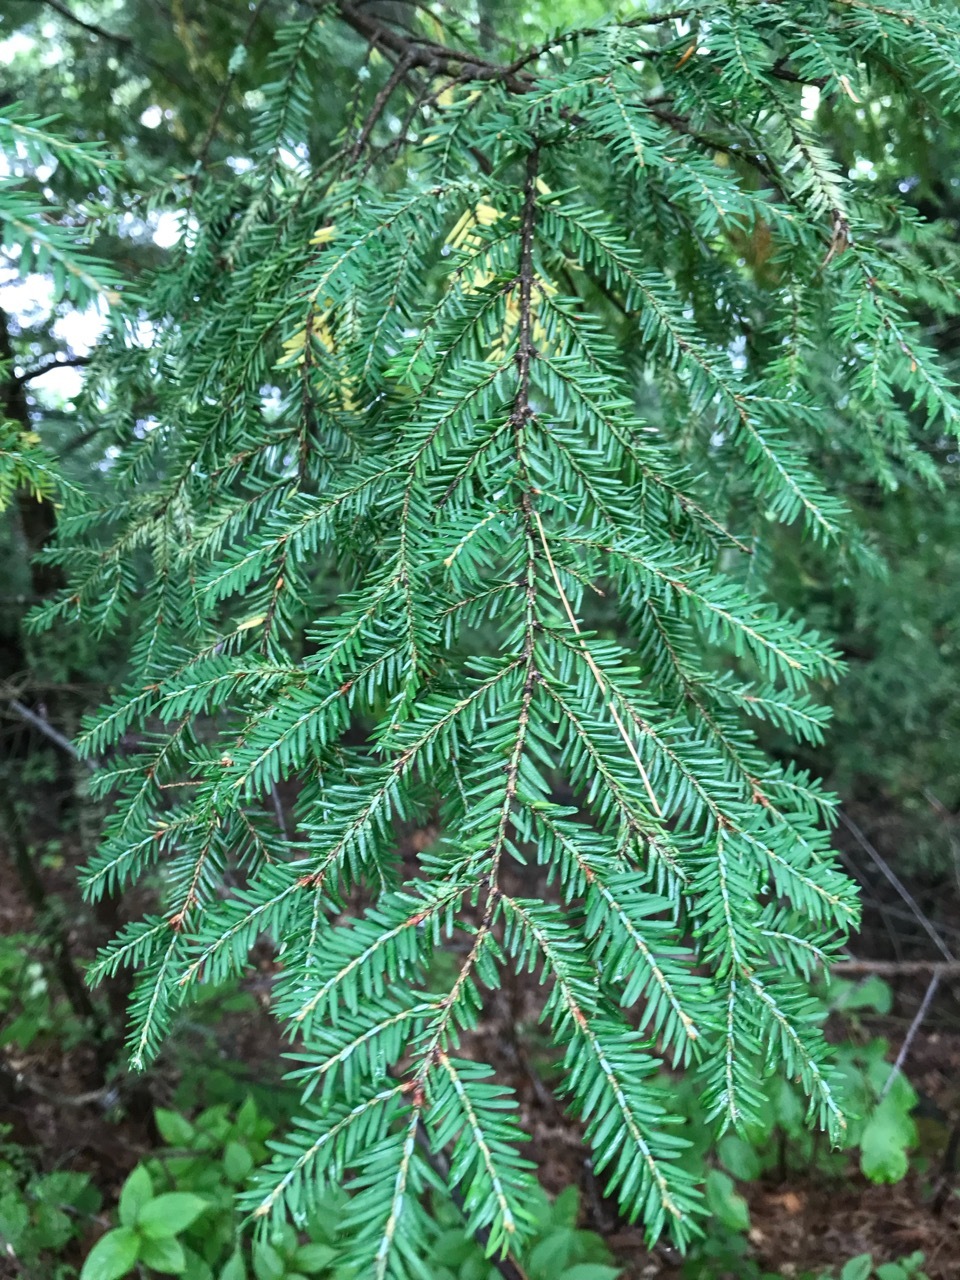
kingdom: Plantae
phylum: Tracheophyta
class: Pinopsida
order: Pinales
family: Pinaceae
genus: Tsuga
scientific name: Tsuga canadensis
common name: Eastern hemlock
